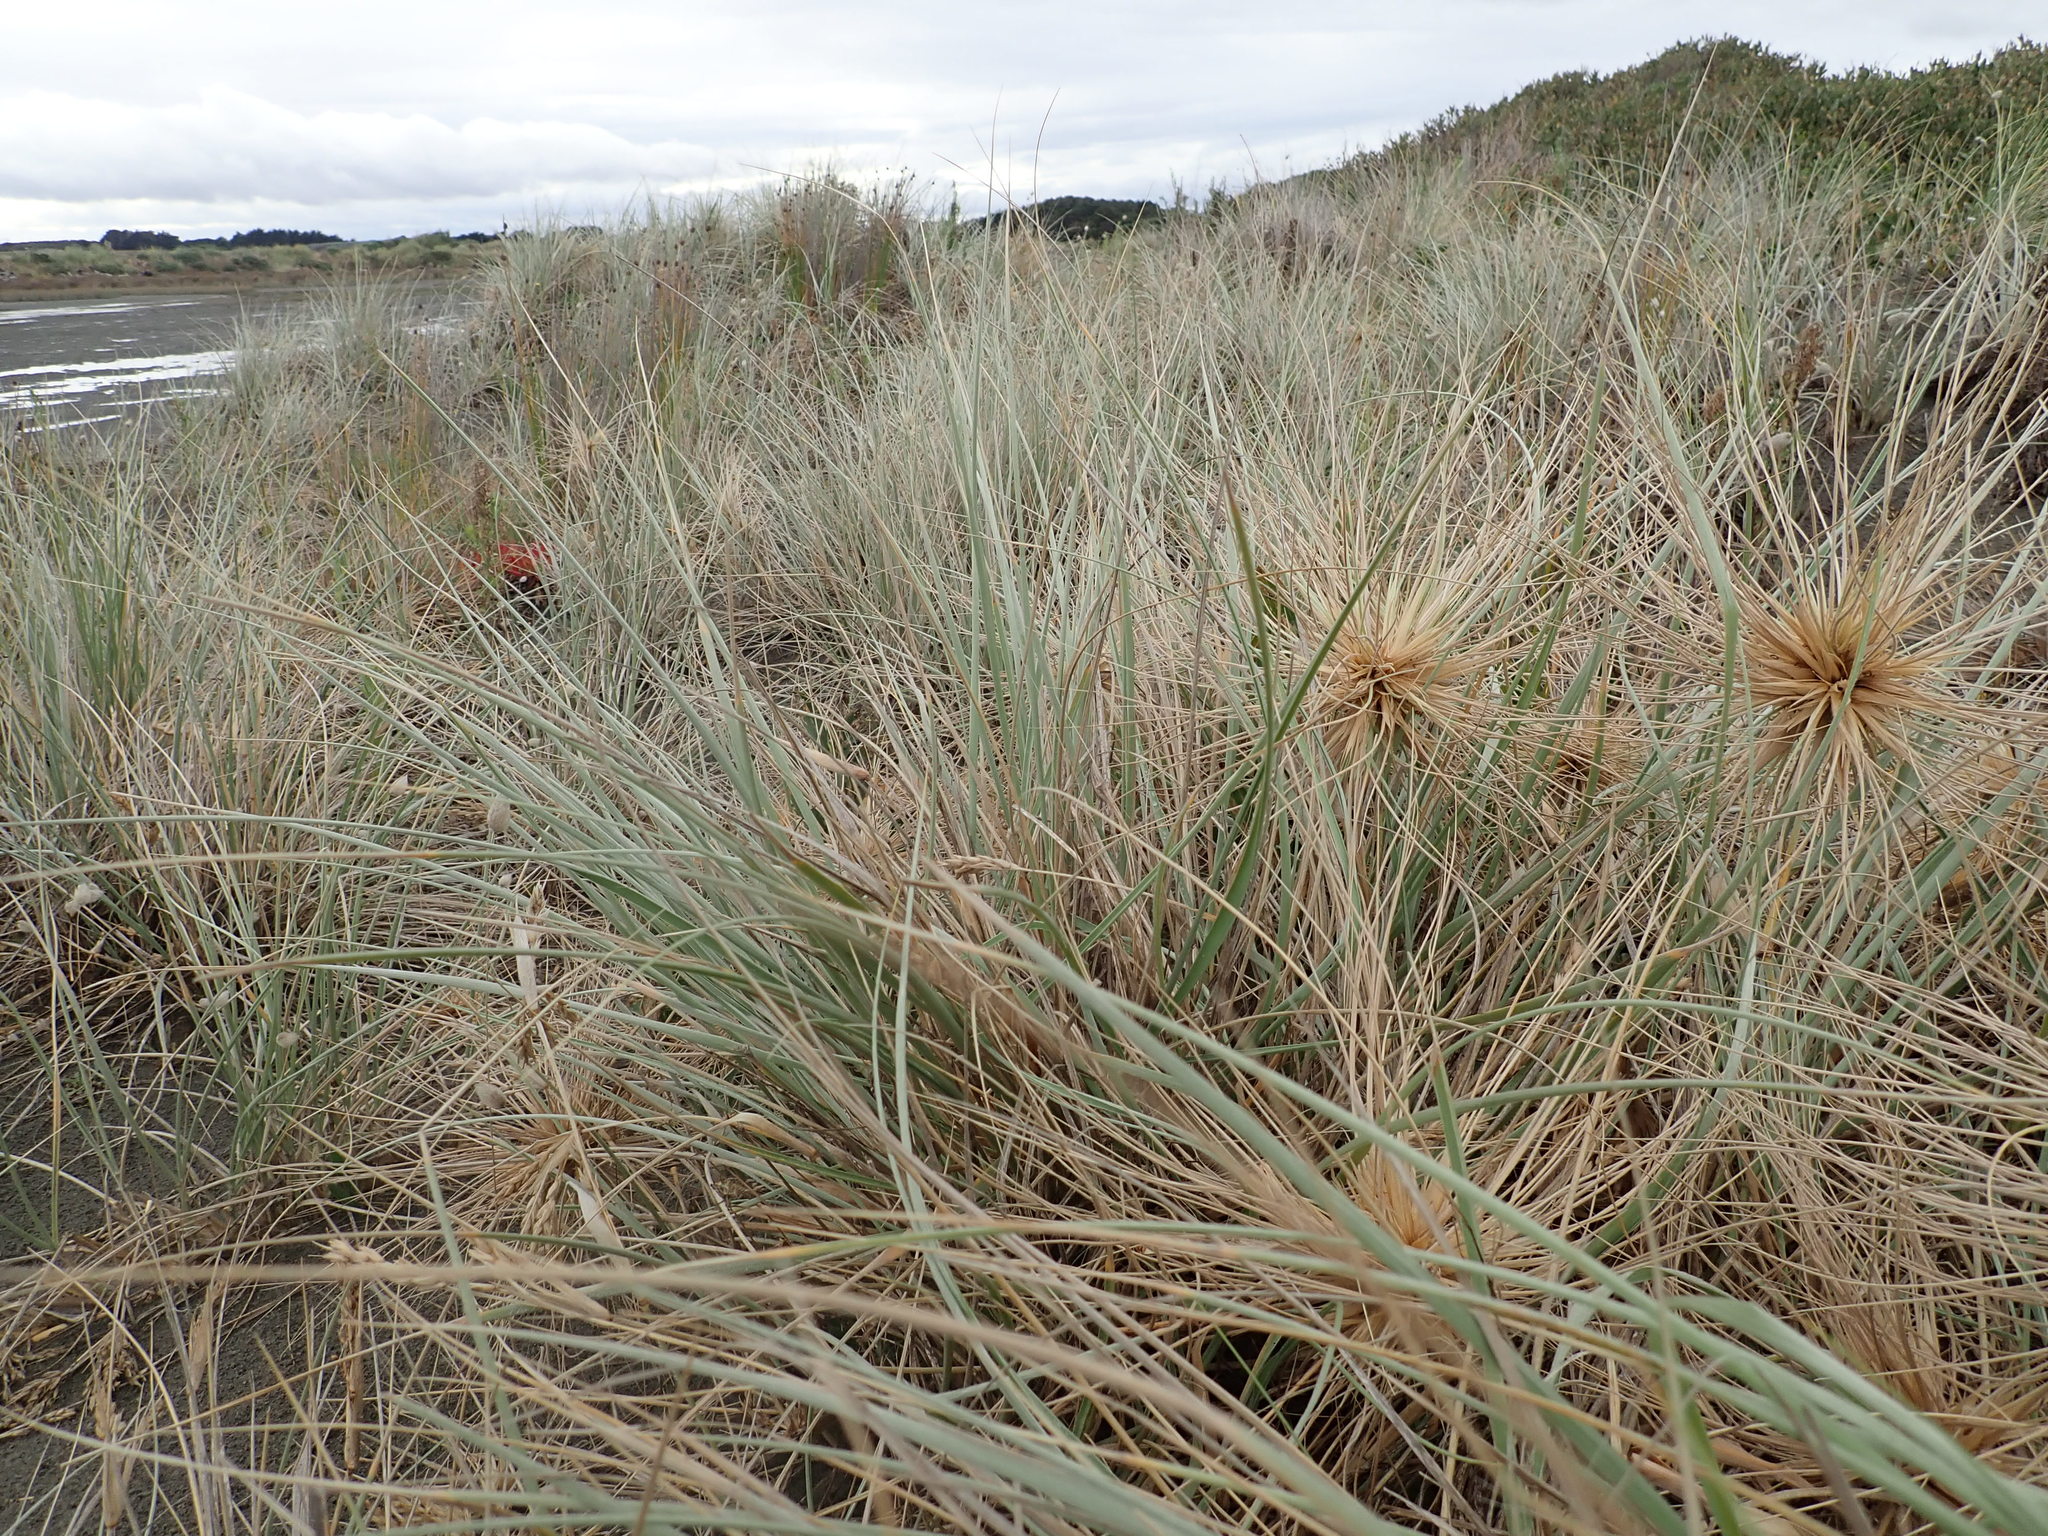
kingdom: Plantae
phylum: Tracheophyta
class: Liliopsida
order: Poales
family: Poaceae
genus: Spinifex
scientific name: Spinifex sericeus
